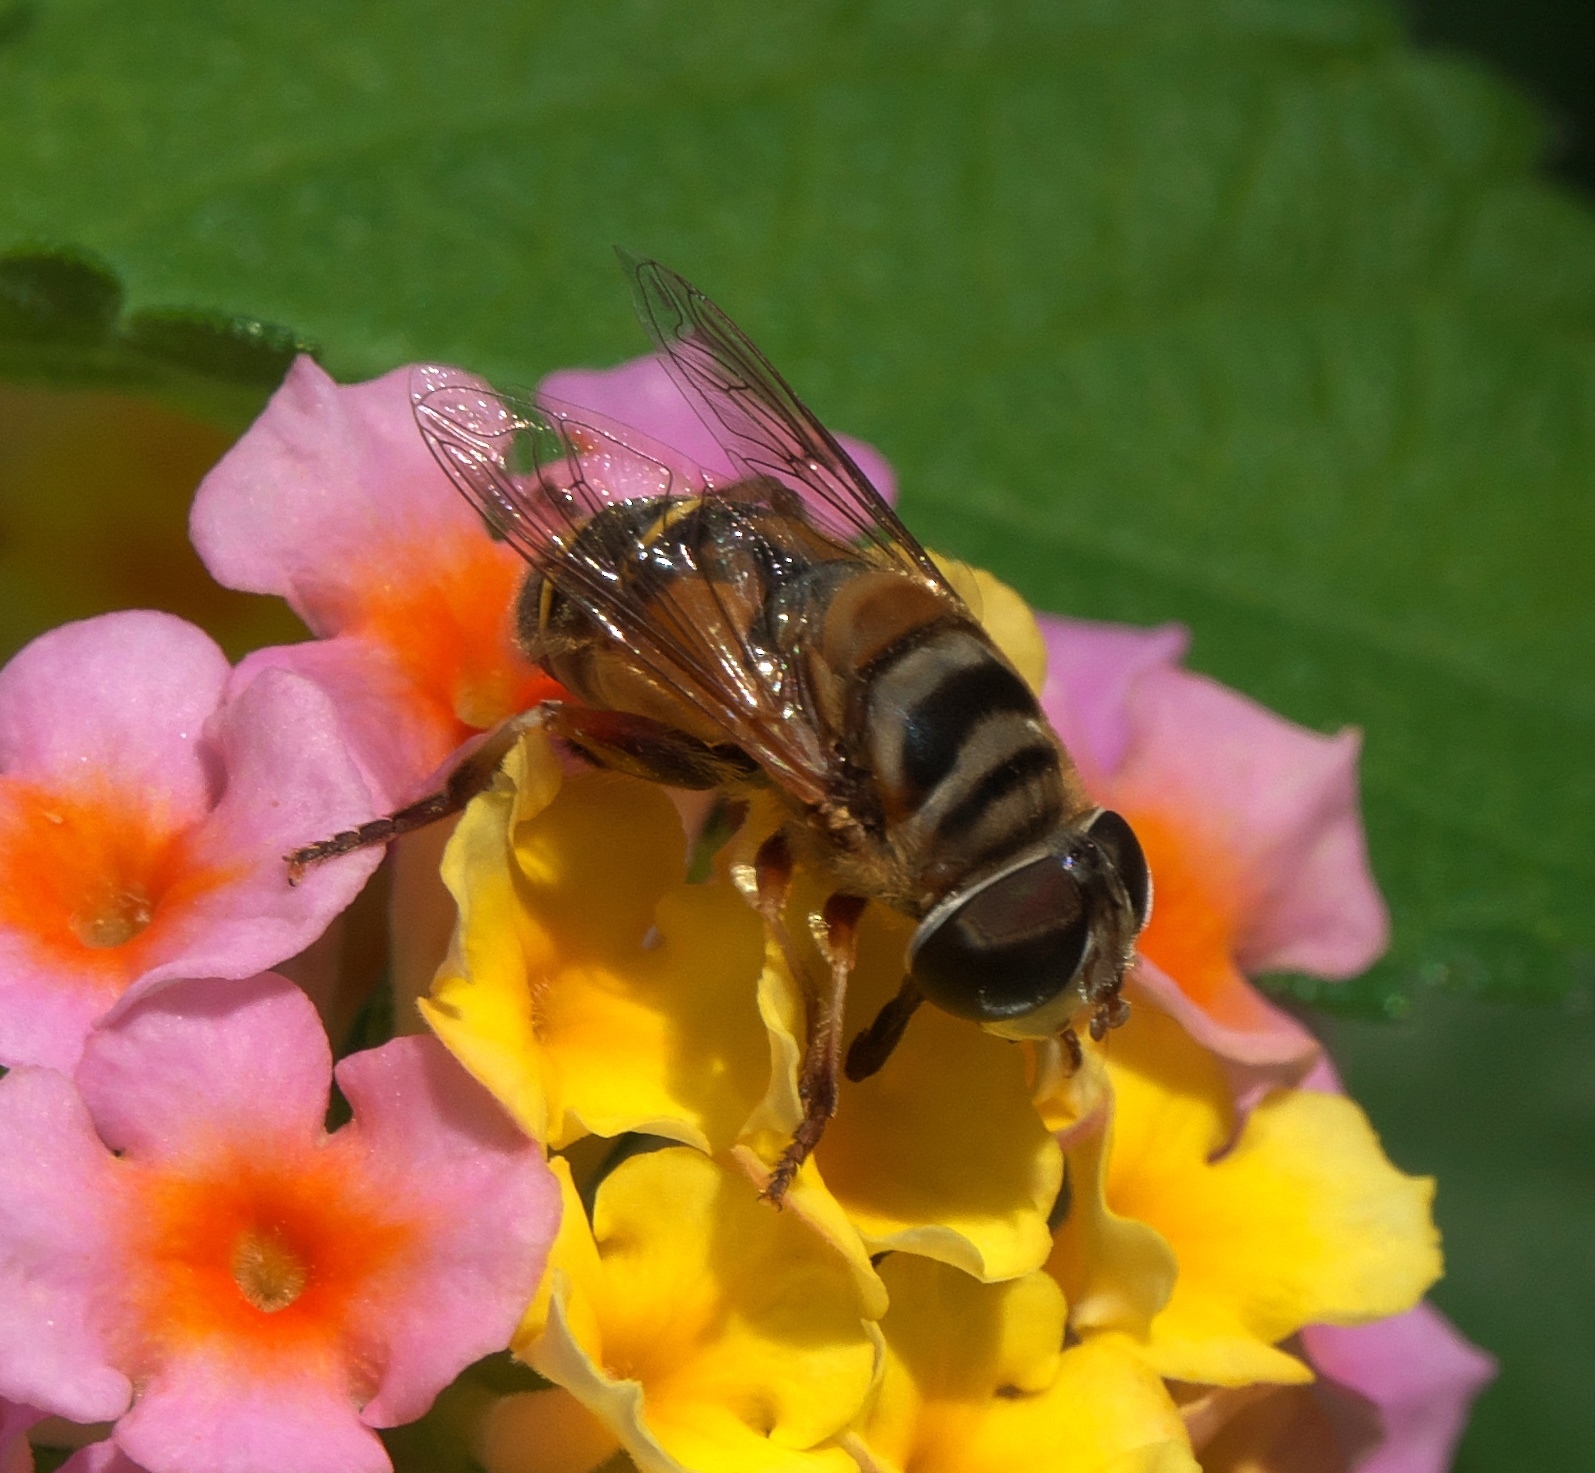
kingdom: Animalia
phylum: Arthropoda
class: Insecta
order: Diptera
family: Syrphidae
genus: Palpada
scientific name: Palpada vinetorum
